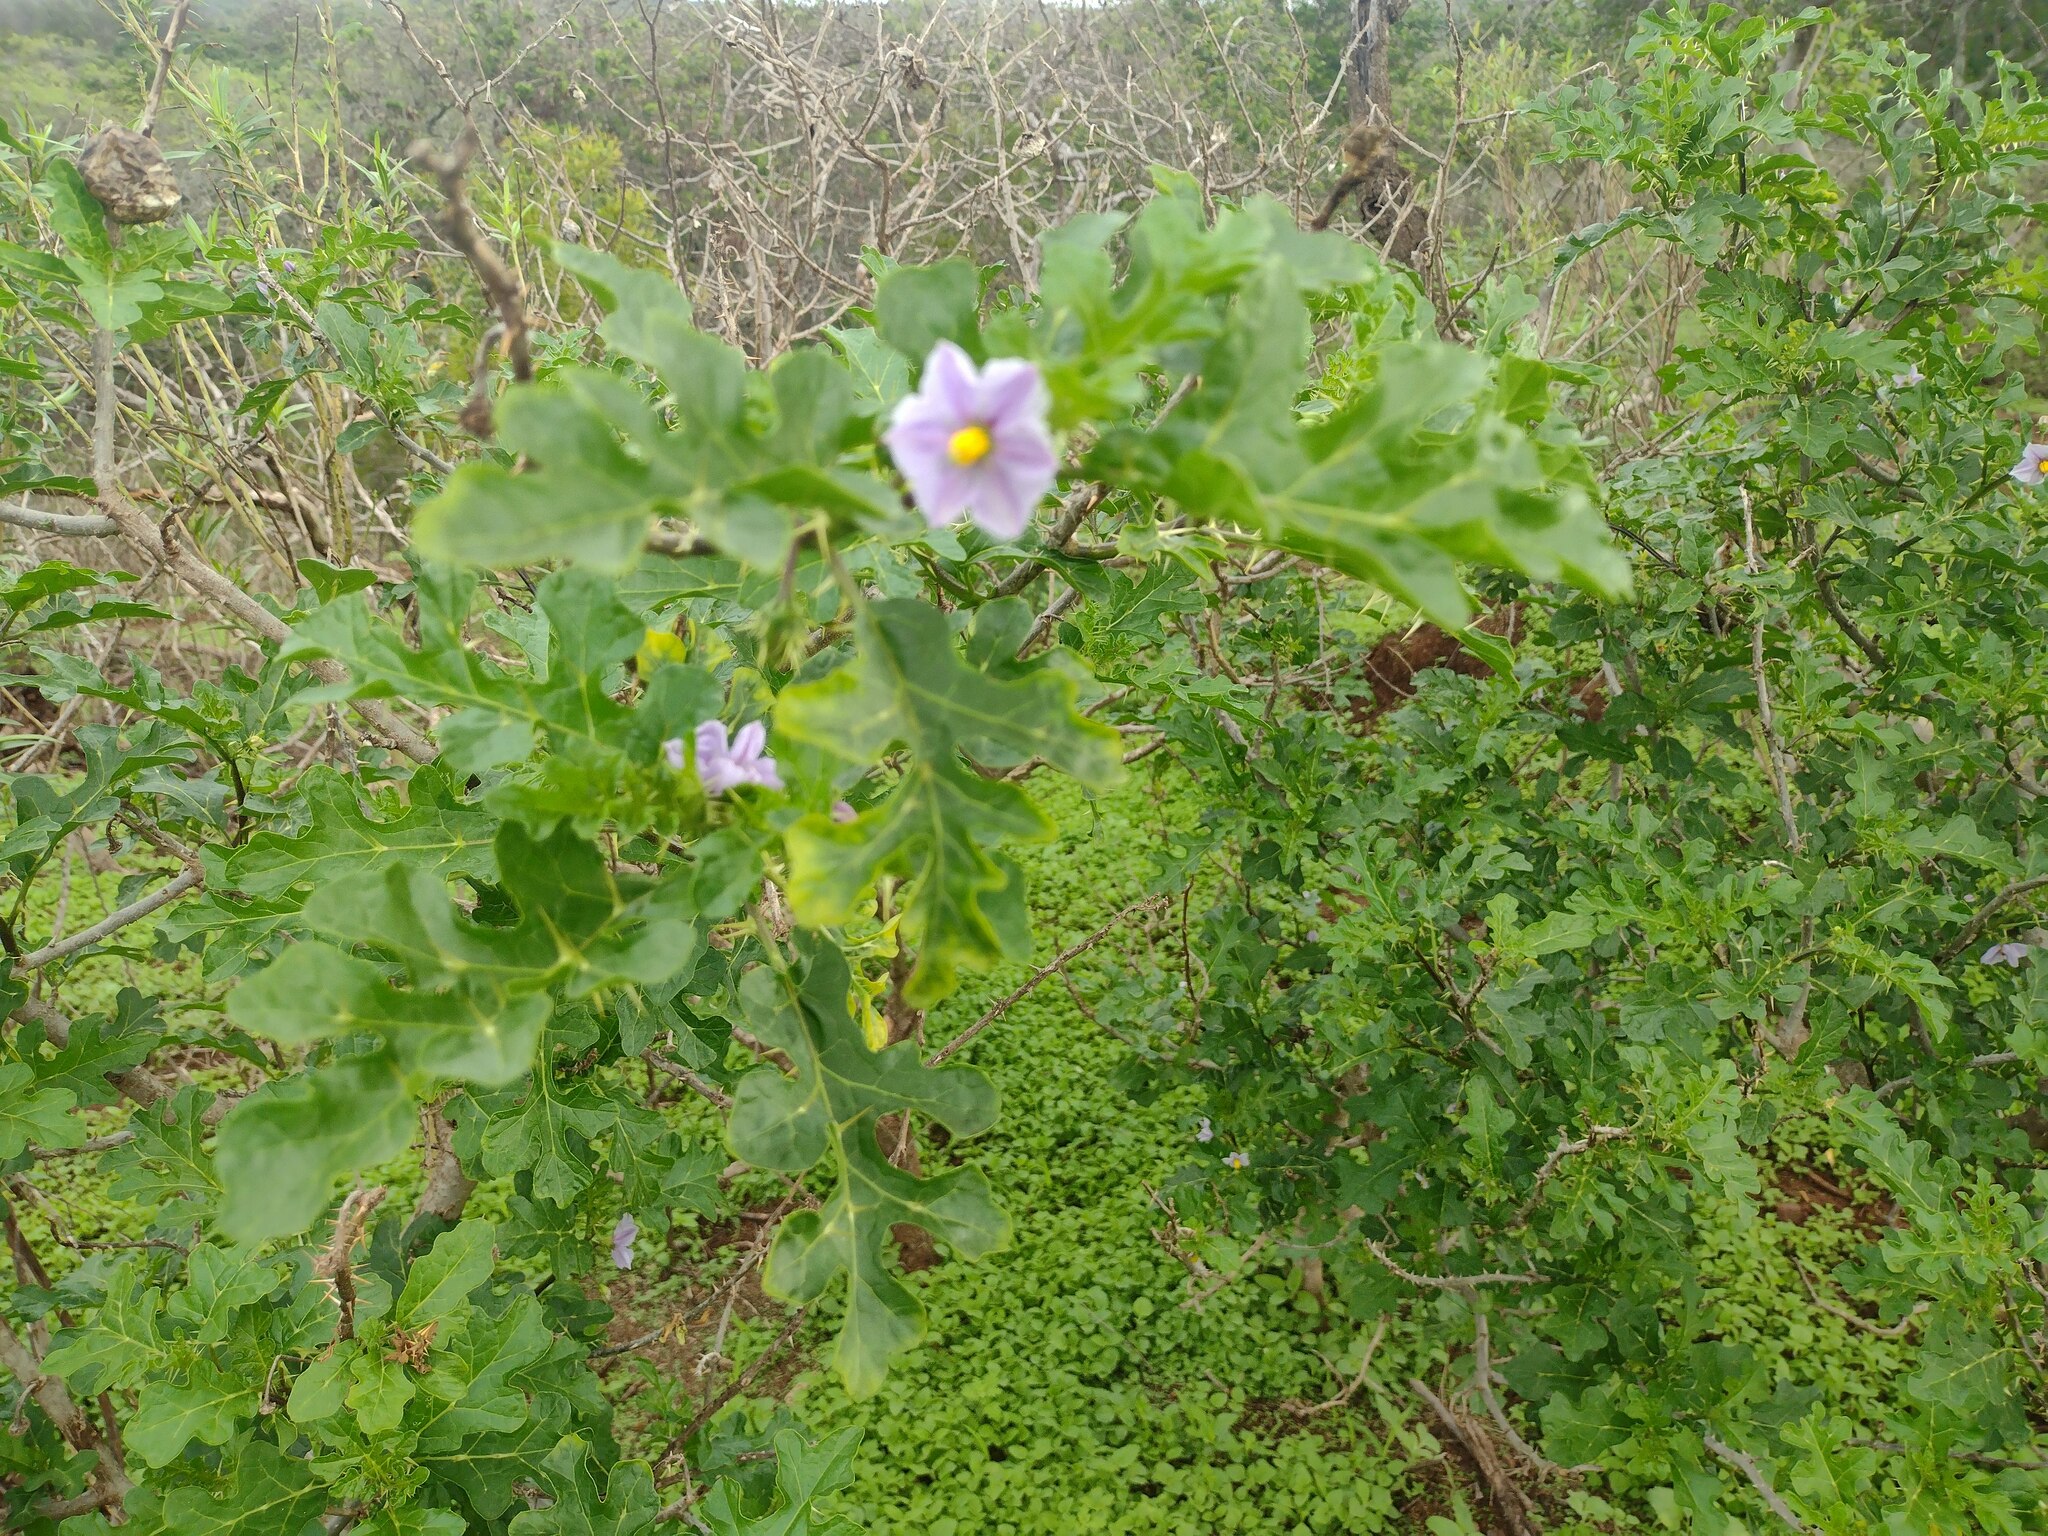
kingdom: Plantae
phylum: Tracheophyta
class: Magnoliopsida
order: Solanales
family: Solanaceae
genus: Solanum
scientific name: Solanum linnaeanum
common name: Nightshade
